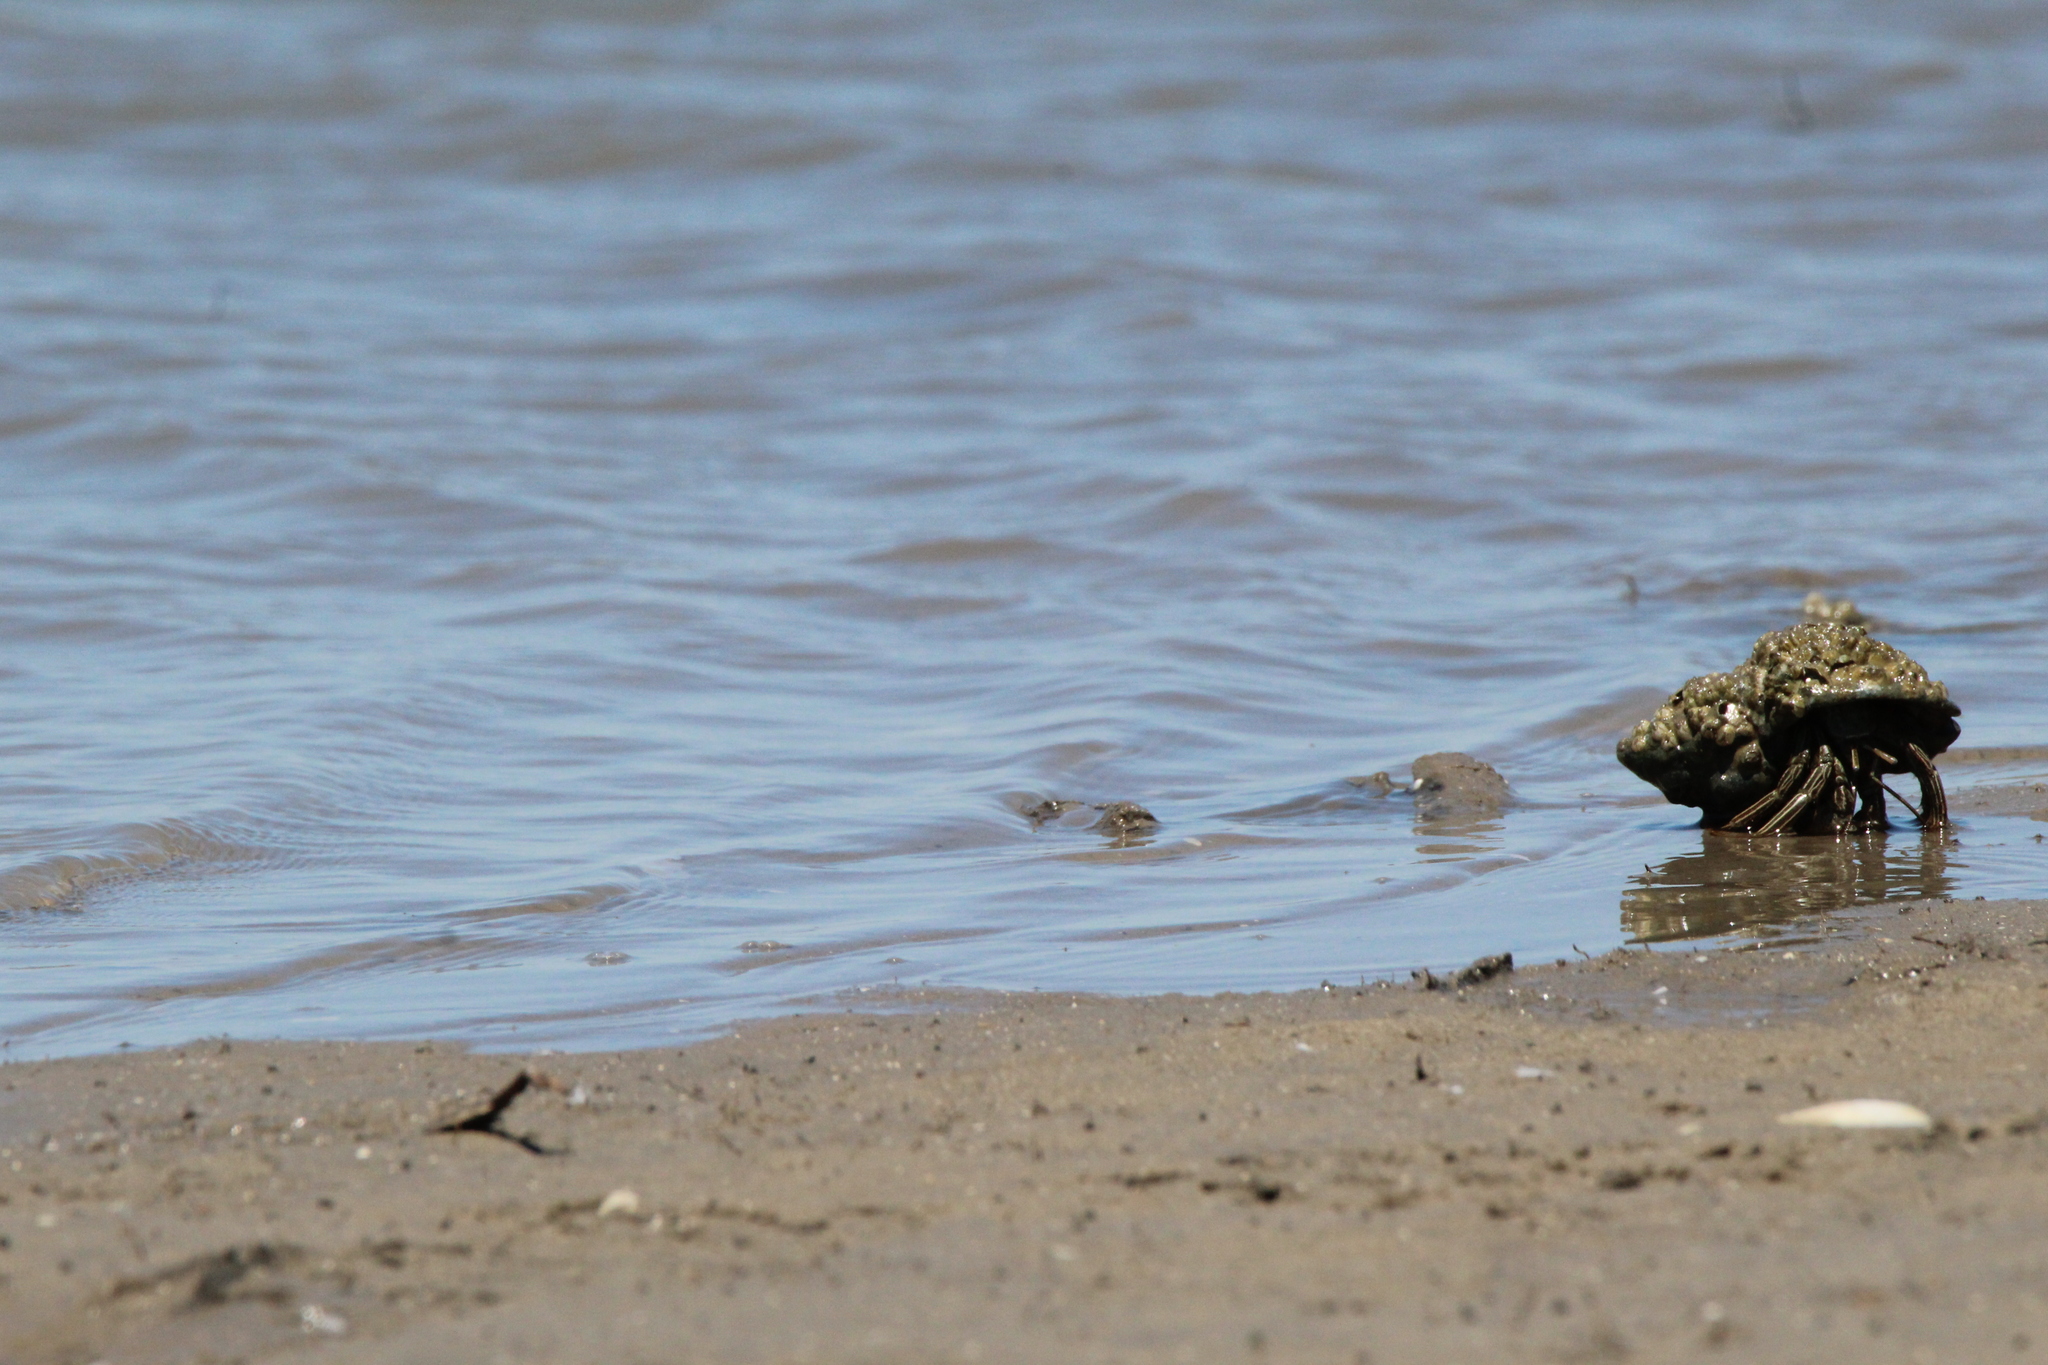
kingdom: Animalia
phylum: Arthropoda
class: Malacostraca
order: Decapoda
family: Diogenidae
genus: Clibanarius
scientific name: Clibanarius vittatus
